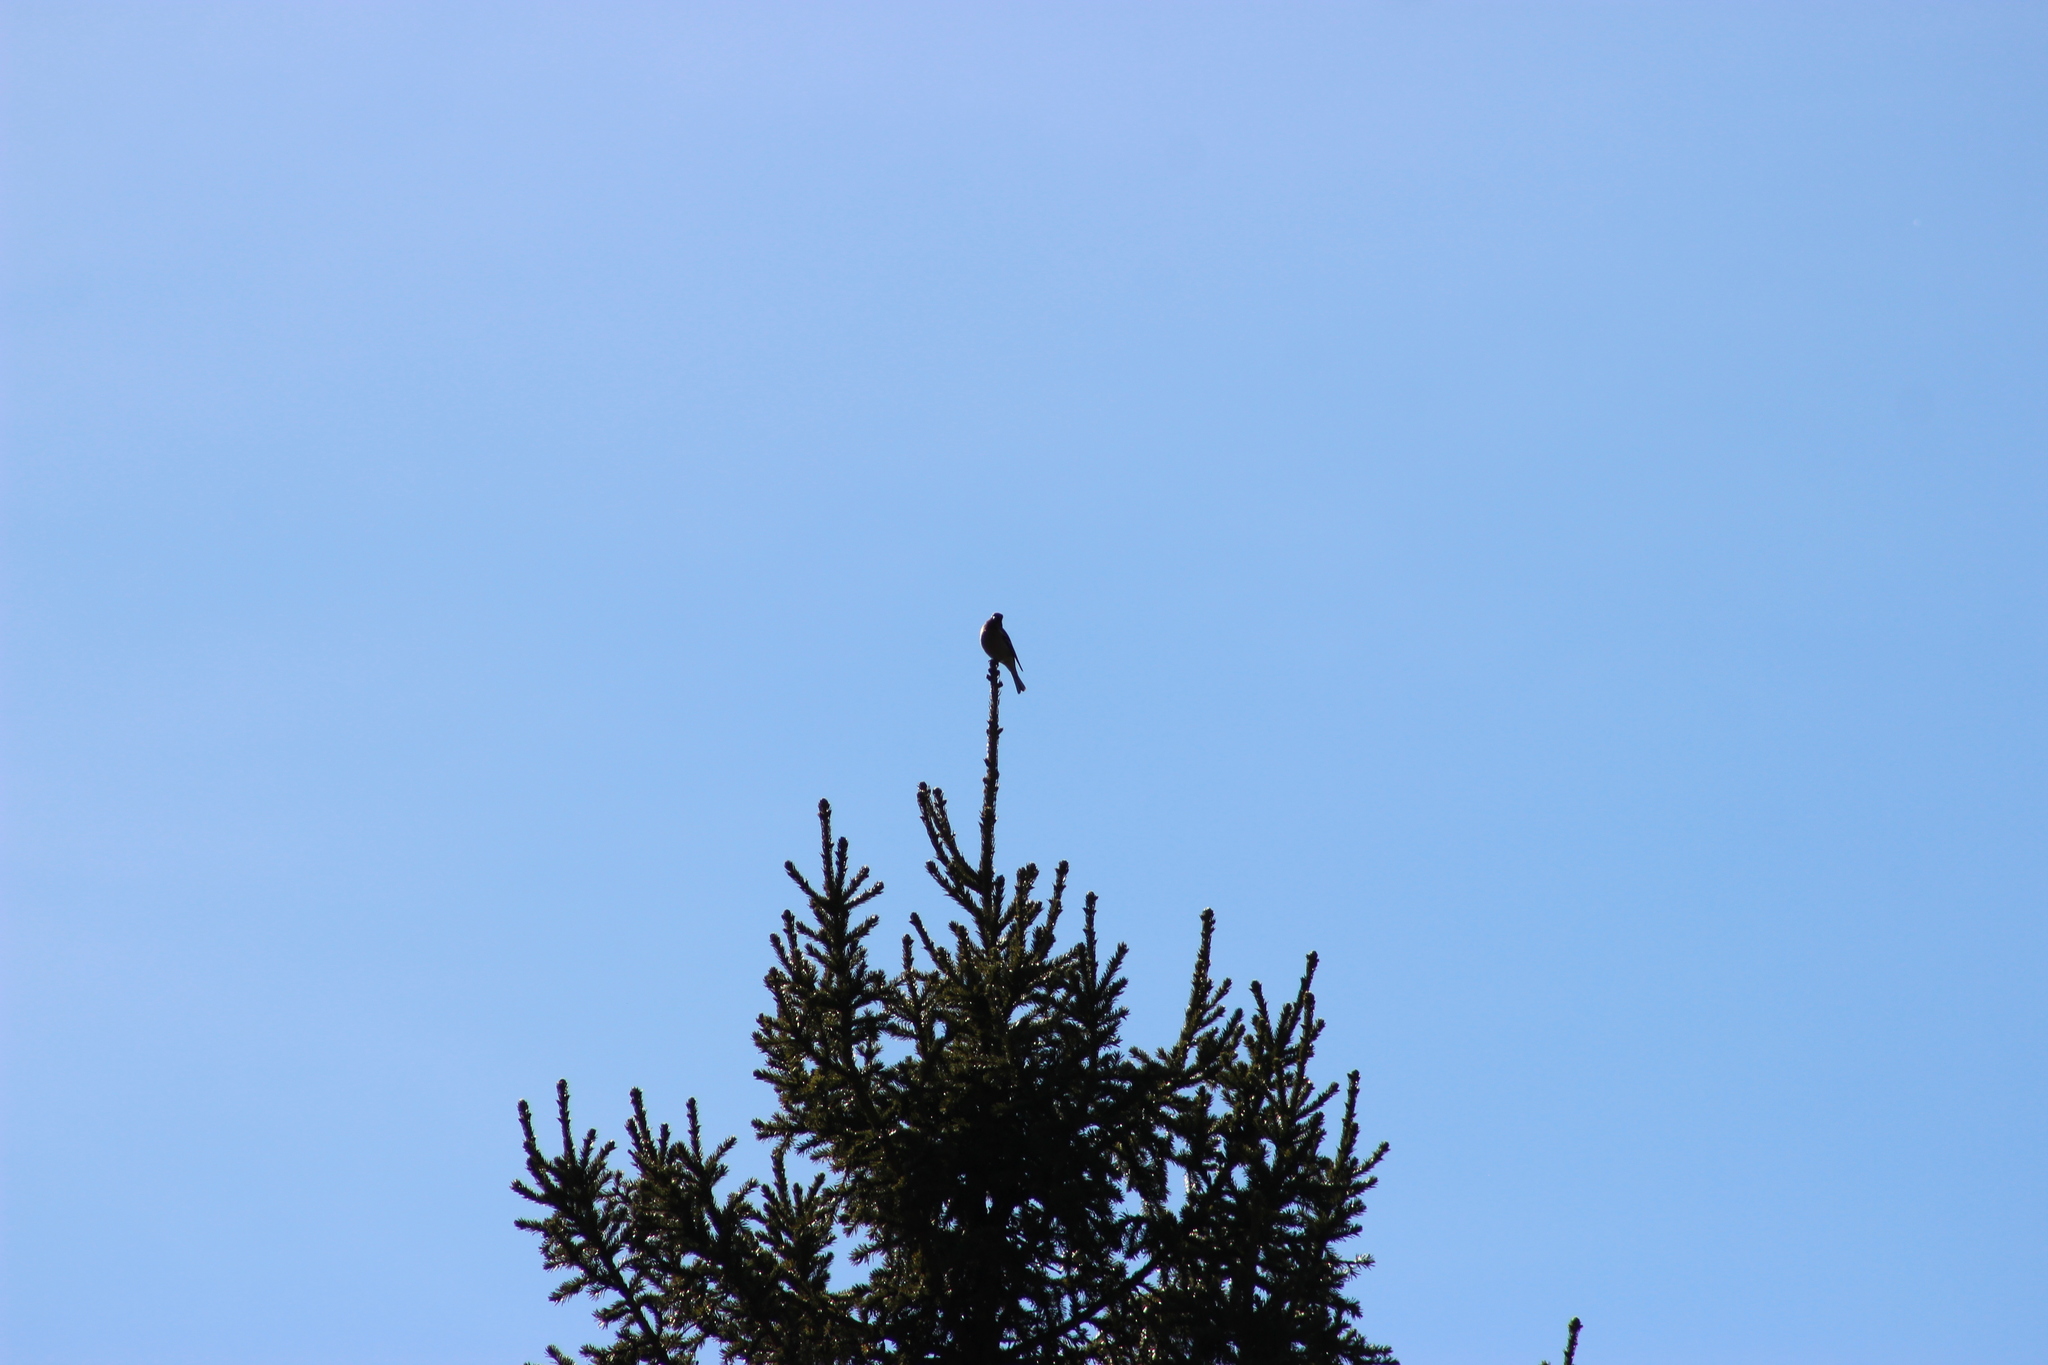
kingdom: Animalia
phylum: Chordata
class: Aves
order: Passeriformes
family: Fringillidae
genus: Fringilla
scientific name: Fringilla coelebs
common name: Common chaffinch
